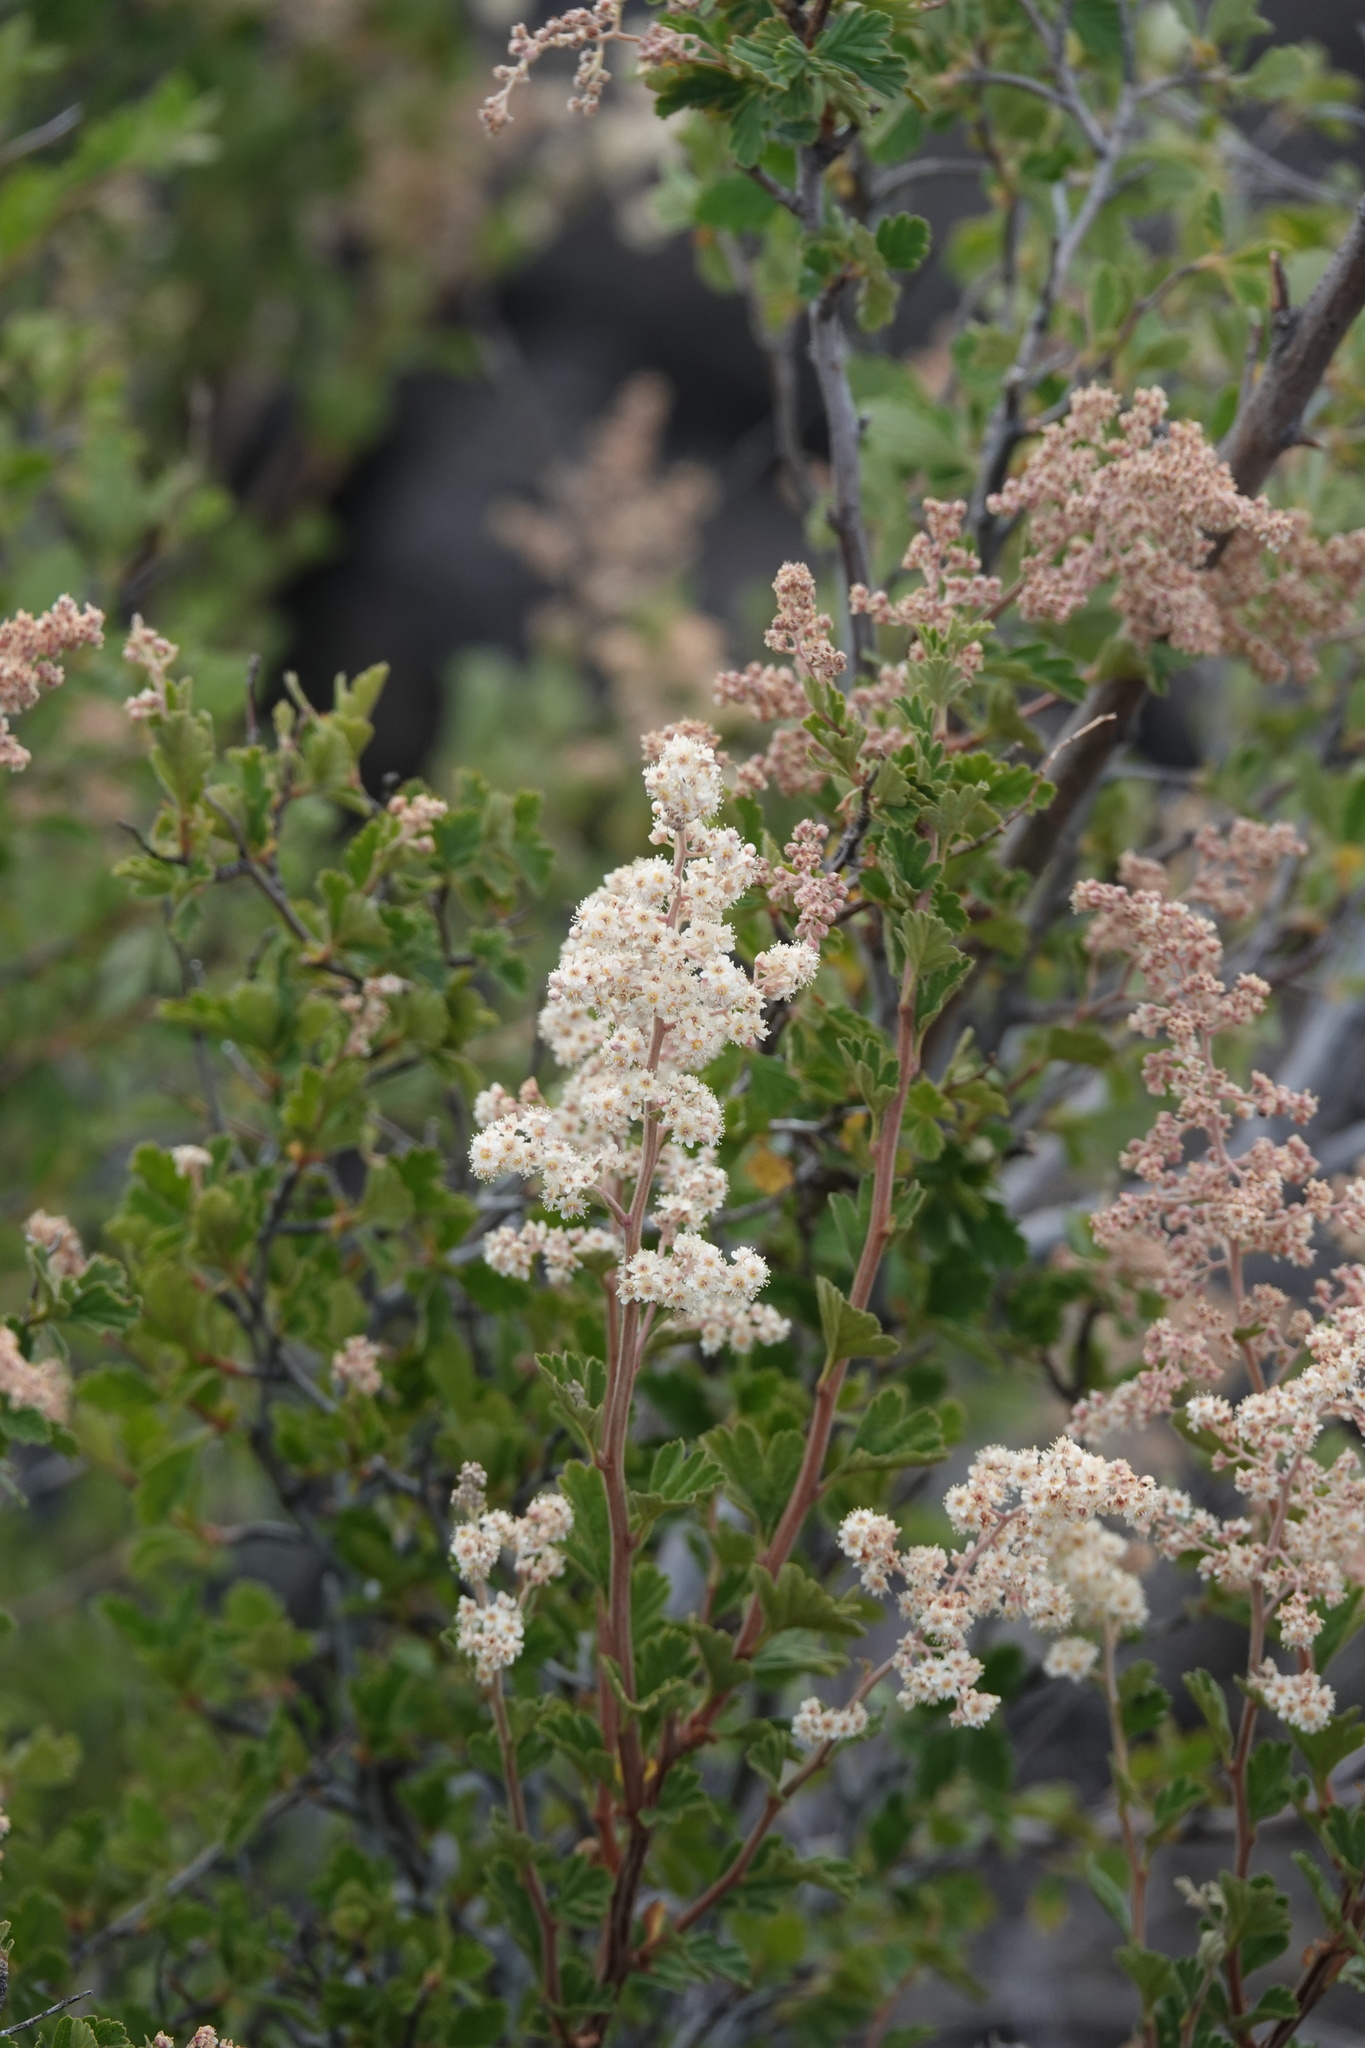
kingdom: Plantae
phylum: Tracheophyta
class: Magnoliopsida
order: Rosales
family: Rosaceae
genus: Holodiscus
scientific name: Holodiscus discolor
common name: Oceanspray
